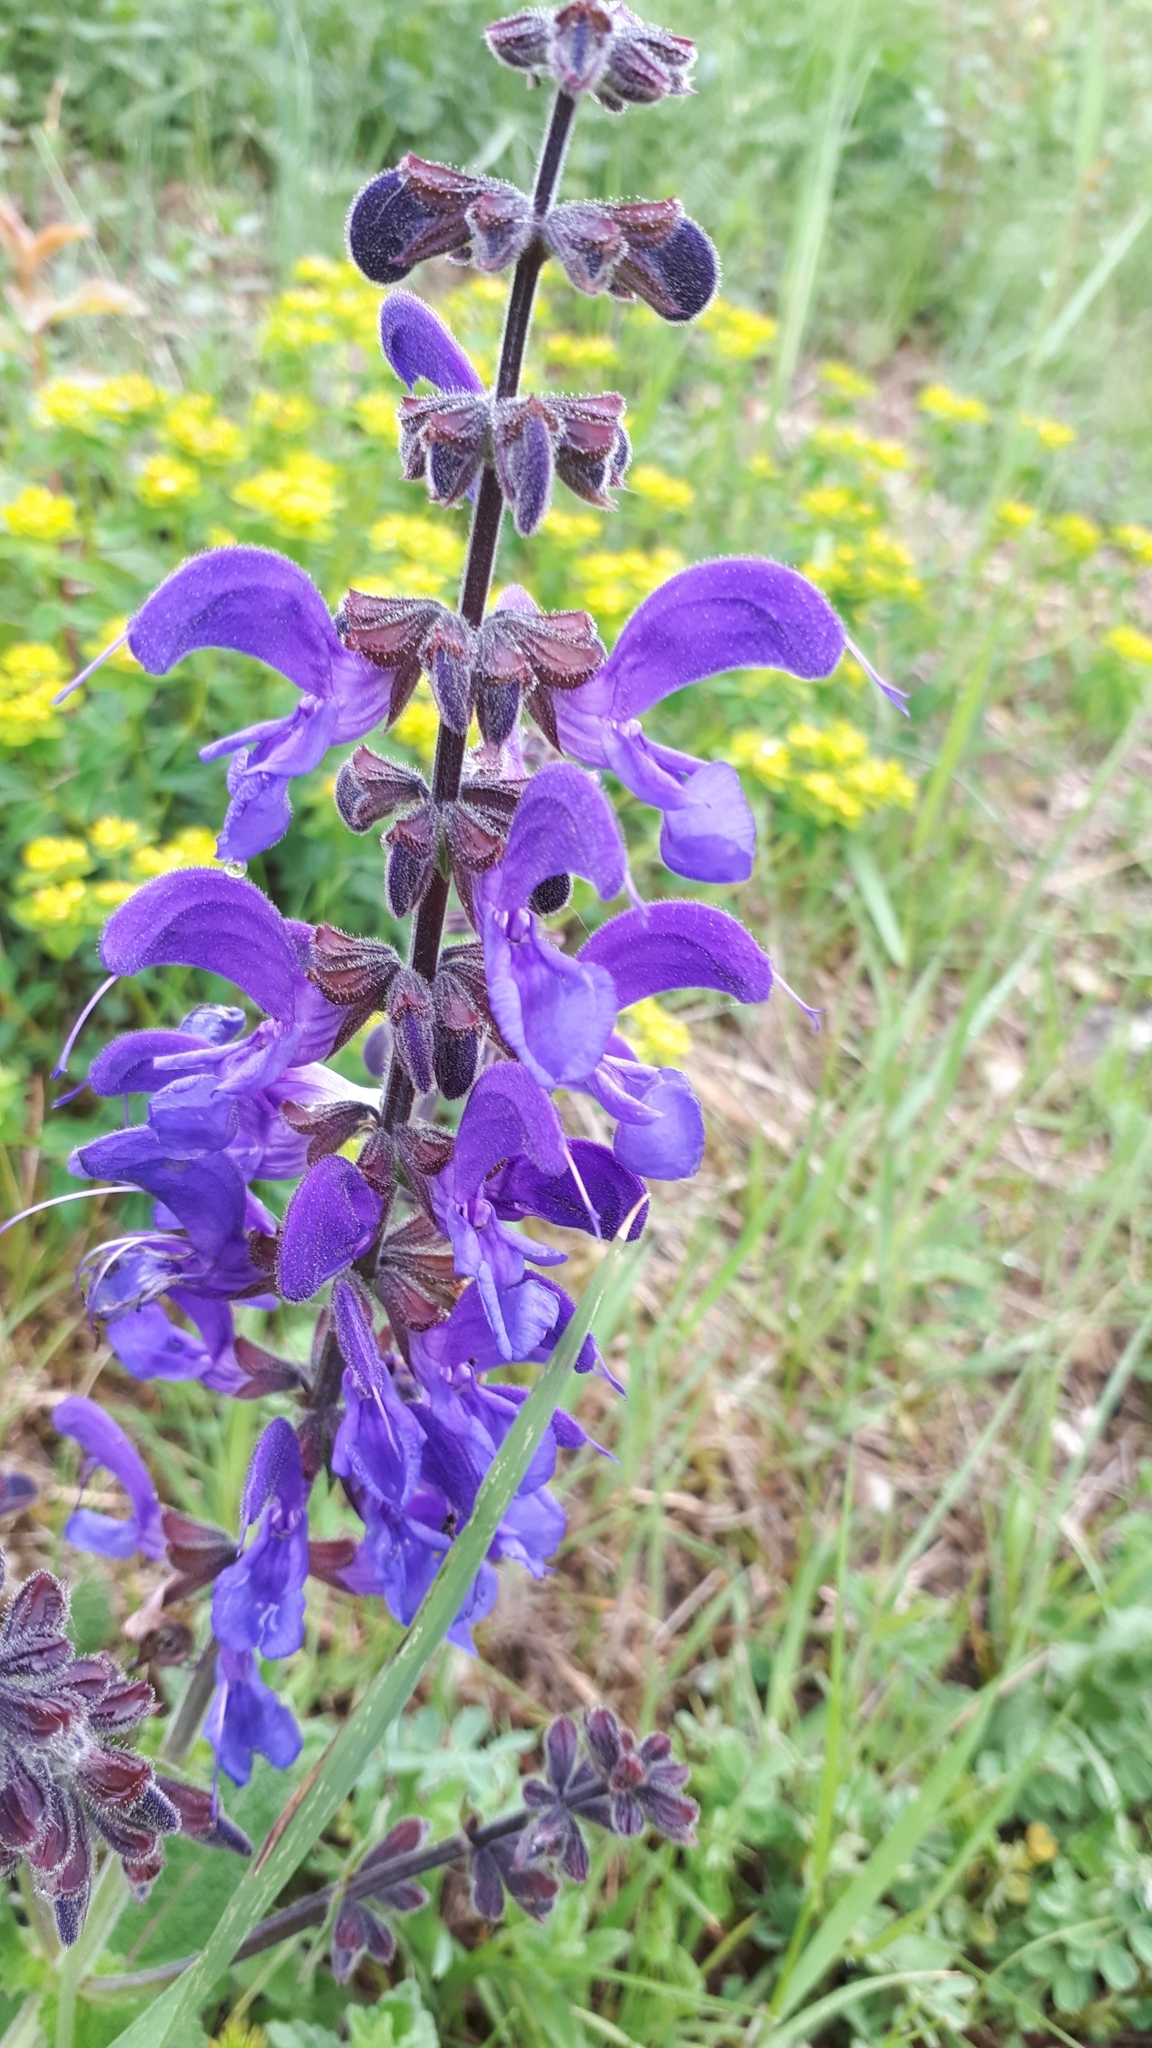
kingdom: Plantae
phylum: Tracheophyta
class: Magnoliopsida
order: Lamiales
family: Lamiaceae
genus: Salvia
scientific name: Salvia pratensis
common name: Meadow sage
